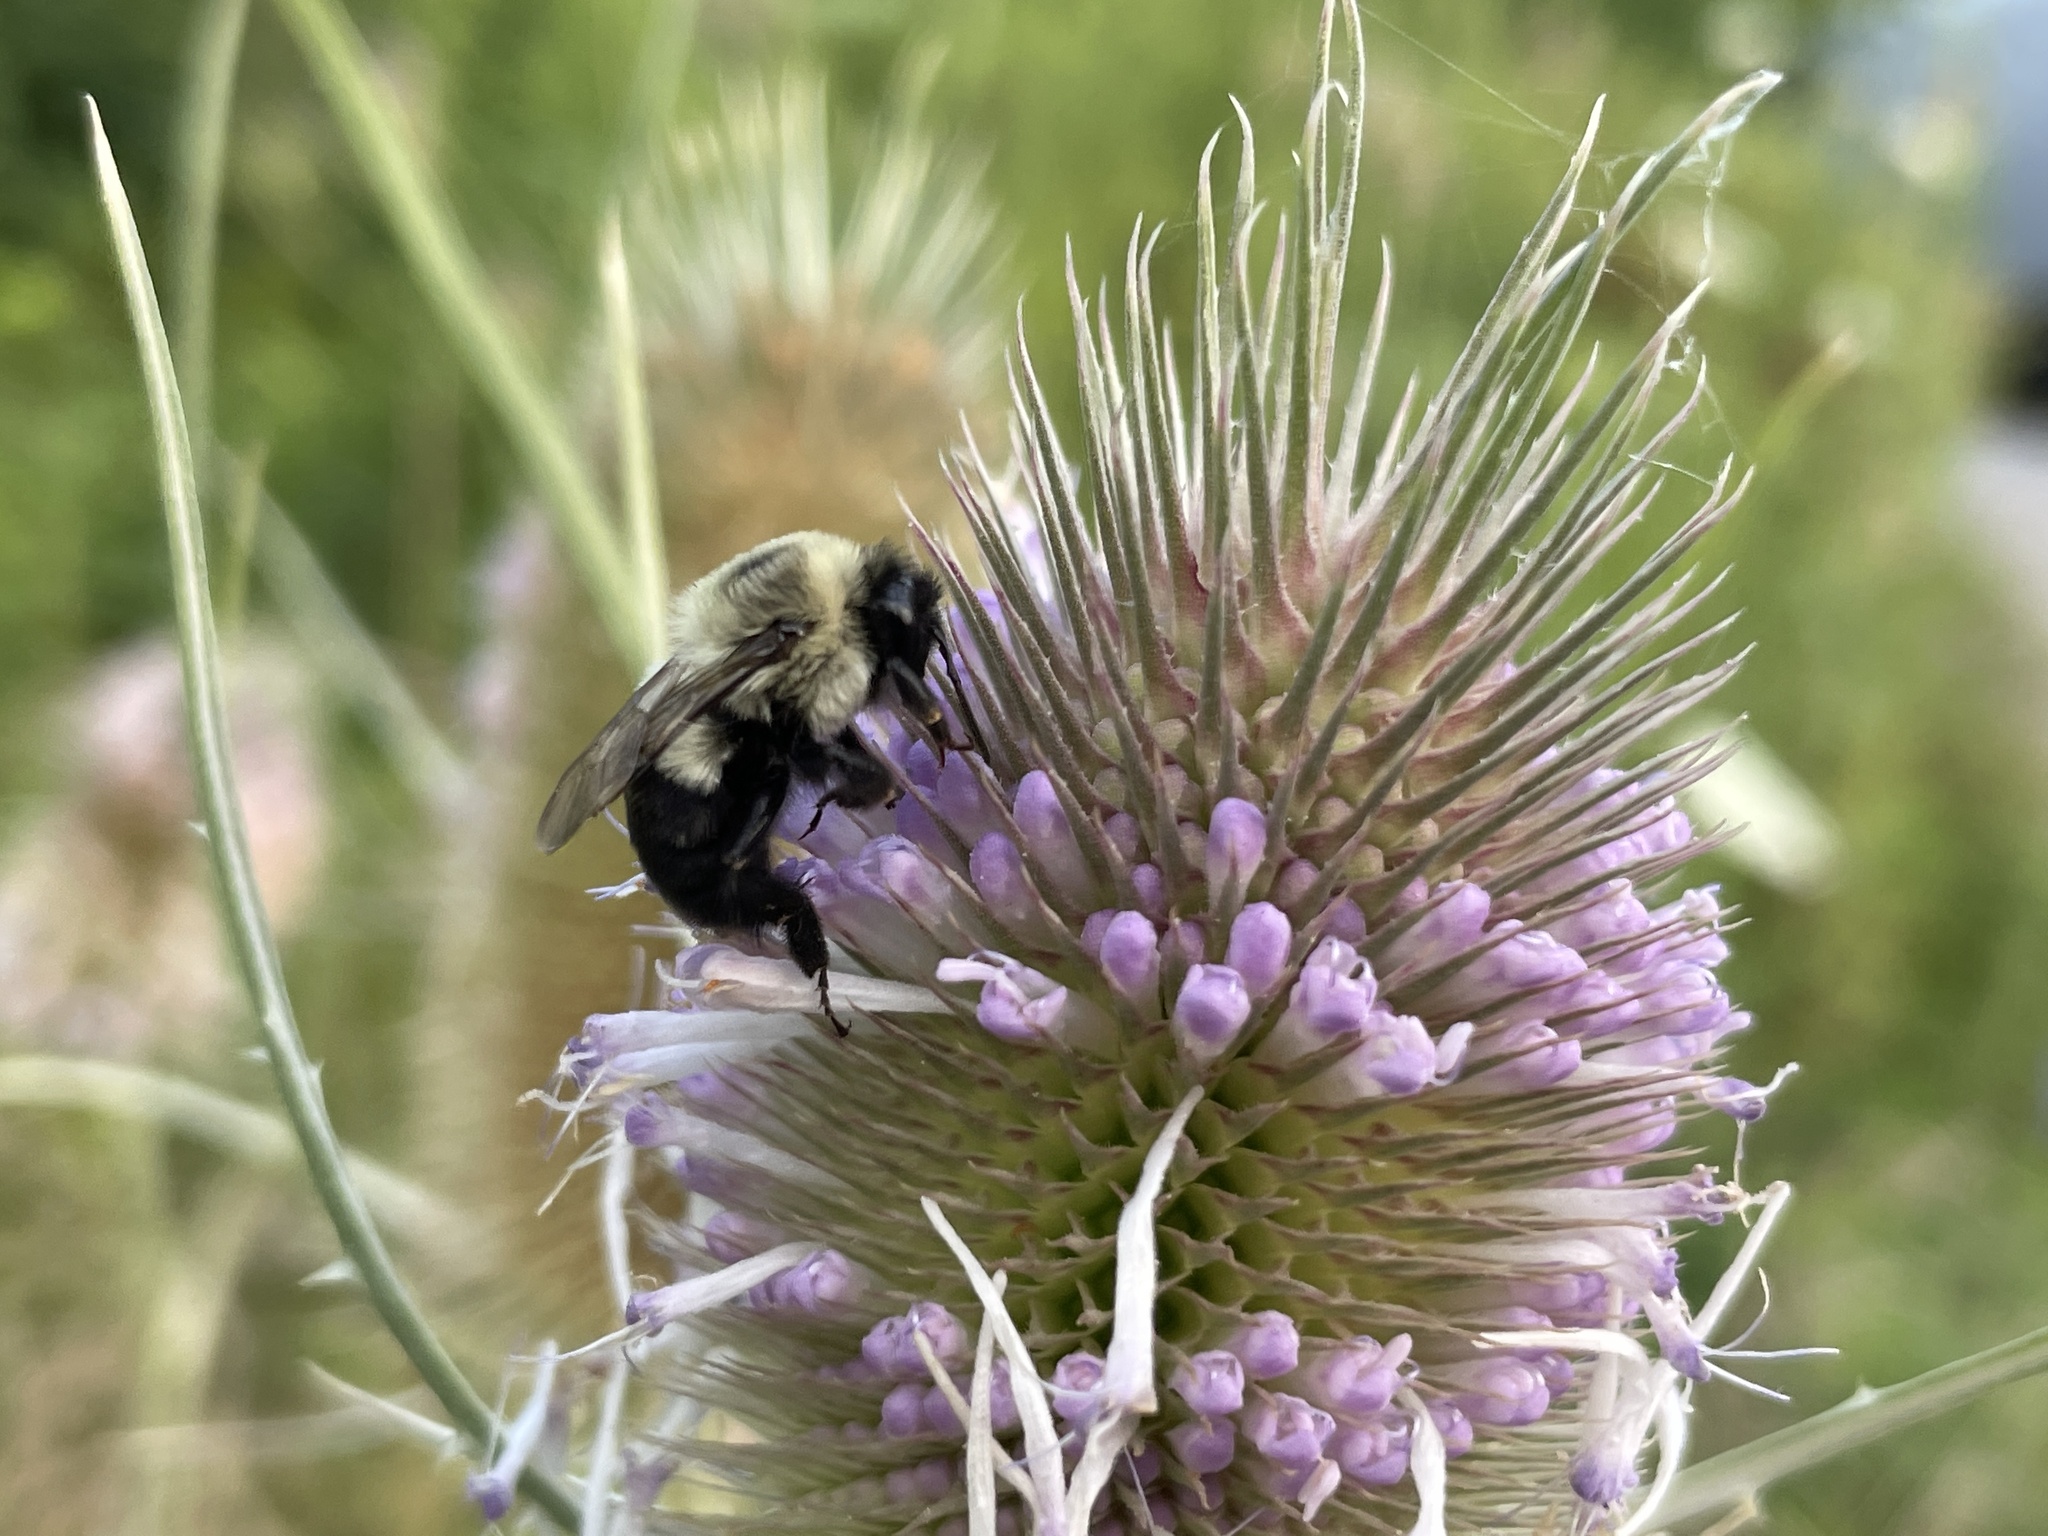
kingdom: Animalia
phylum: Arthropoda
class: Insecta
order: Hymenoptera
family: Apidae
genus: Bombus
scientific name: Bombus impatiens
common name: Common eastern bumble bee
